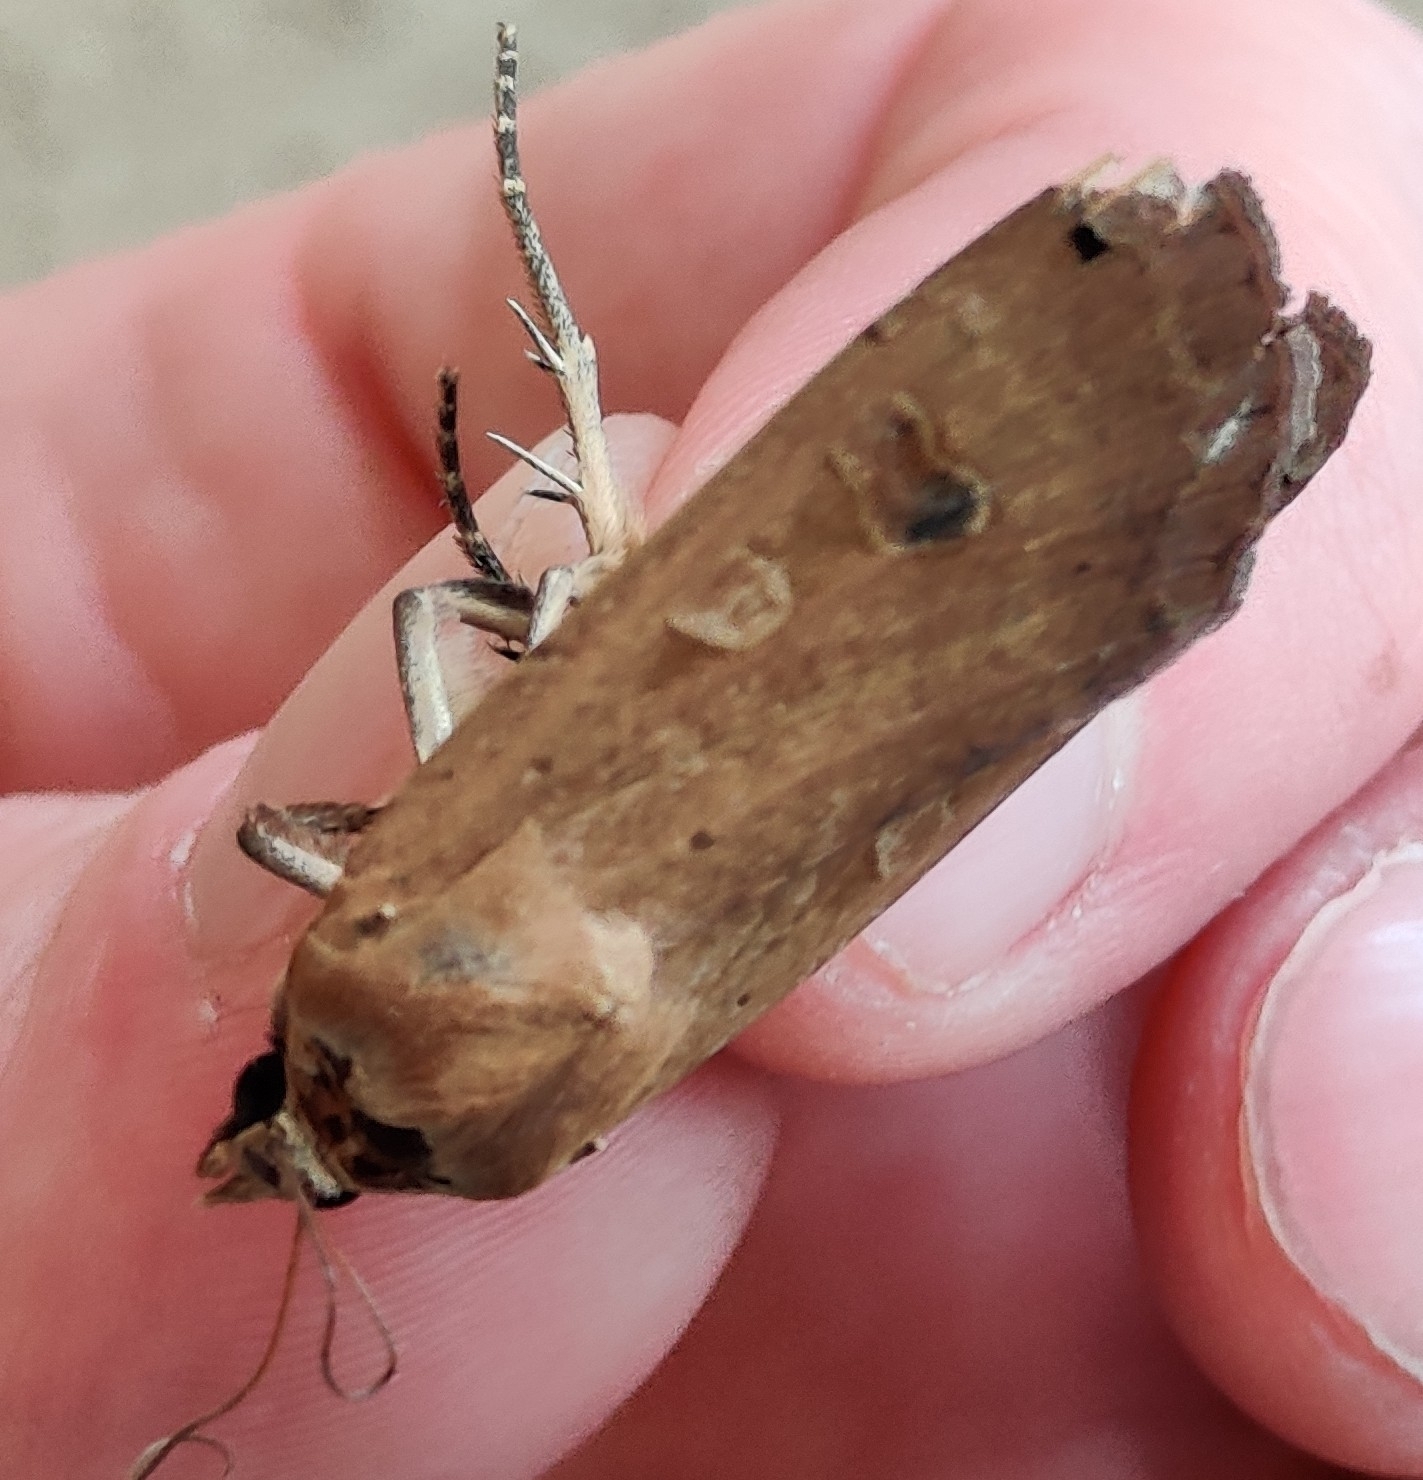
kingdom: Animalia
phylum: Arthropoda
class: Insecta
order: Lepidoptera
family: Noctuidae
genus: Noctua
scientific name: Noctua pronuba
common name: Large yellow underwing
